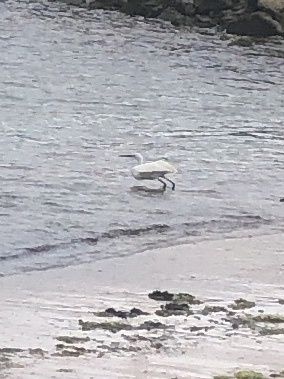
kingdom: Animalia
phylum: Chordata
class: Aves
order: Pelecaniformes
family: Ardeidae
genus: Egretta
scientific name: Egretta garzetta
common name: Little egret
